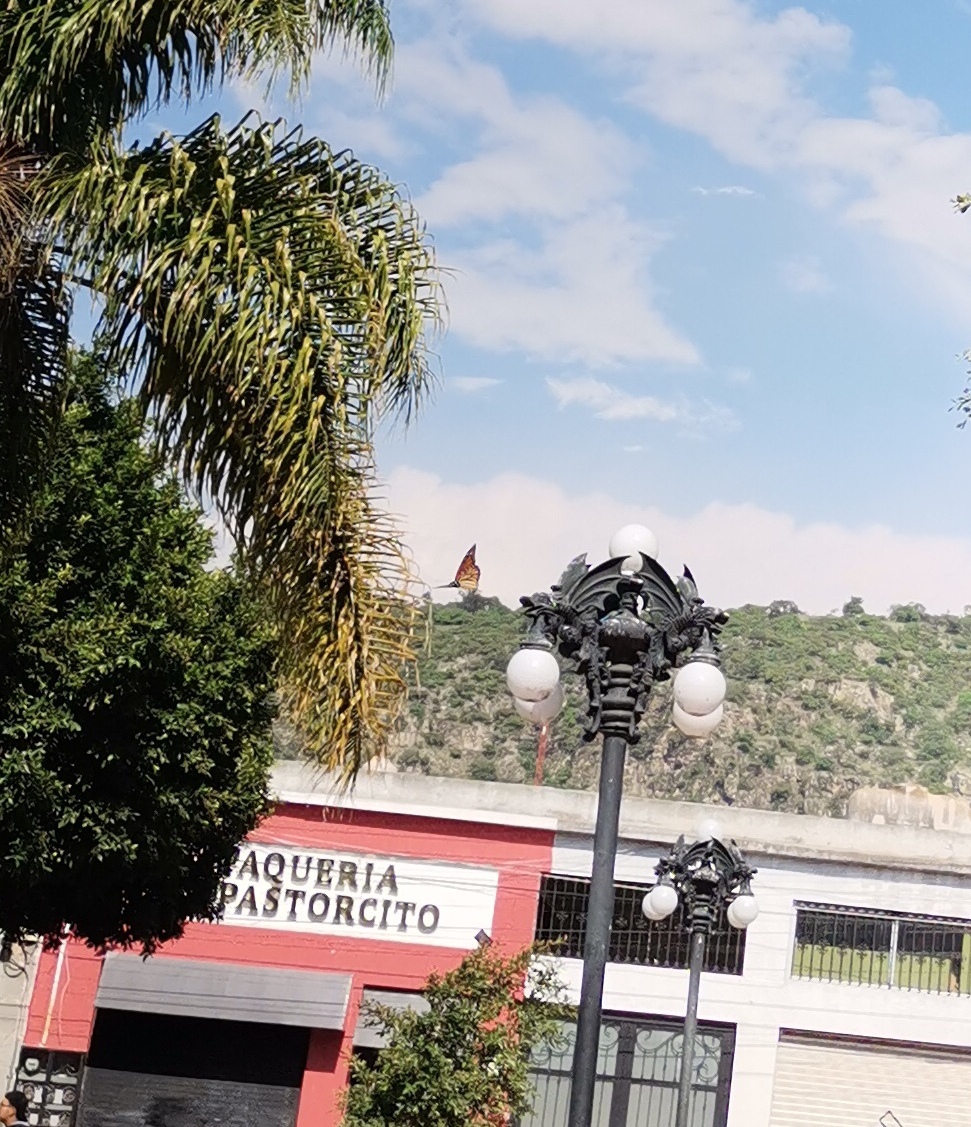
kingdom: Animalia
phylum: Arthropoda
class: Insecta
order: Lepidoptera
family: Nymphalidae
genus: Danaus
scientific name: Danaus plexippus
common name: Monarch
